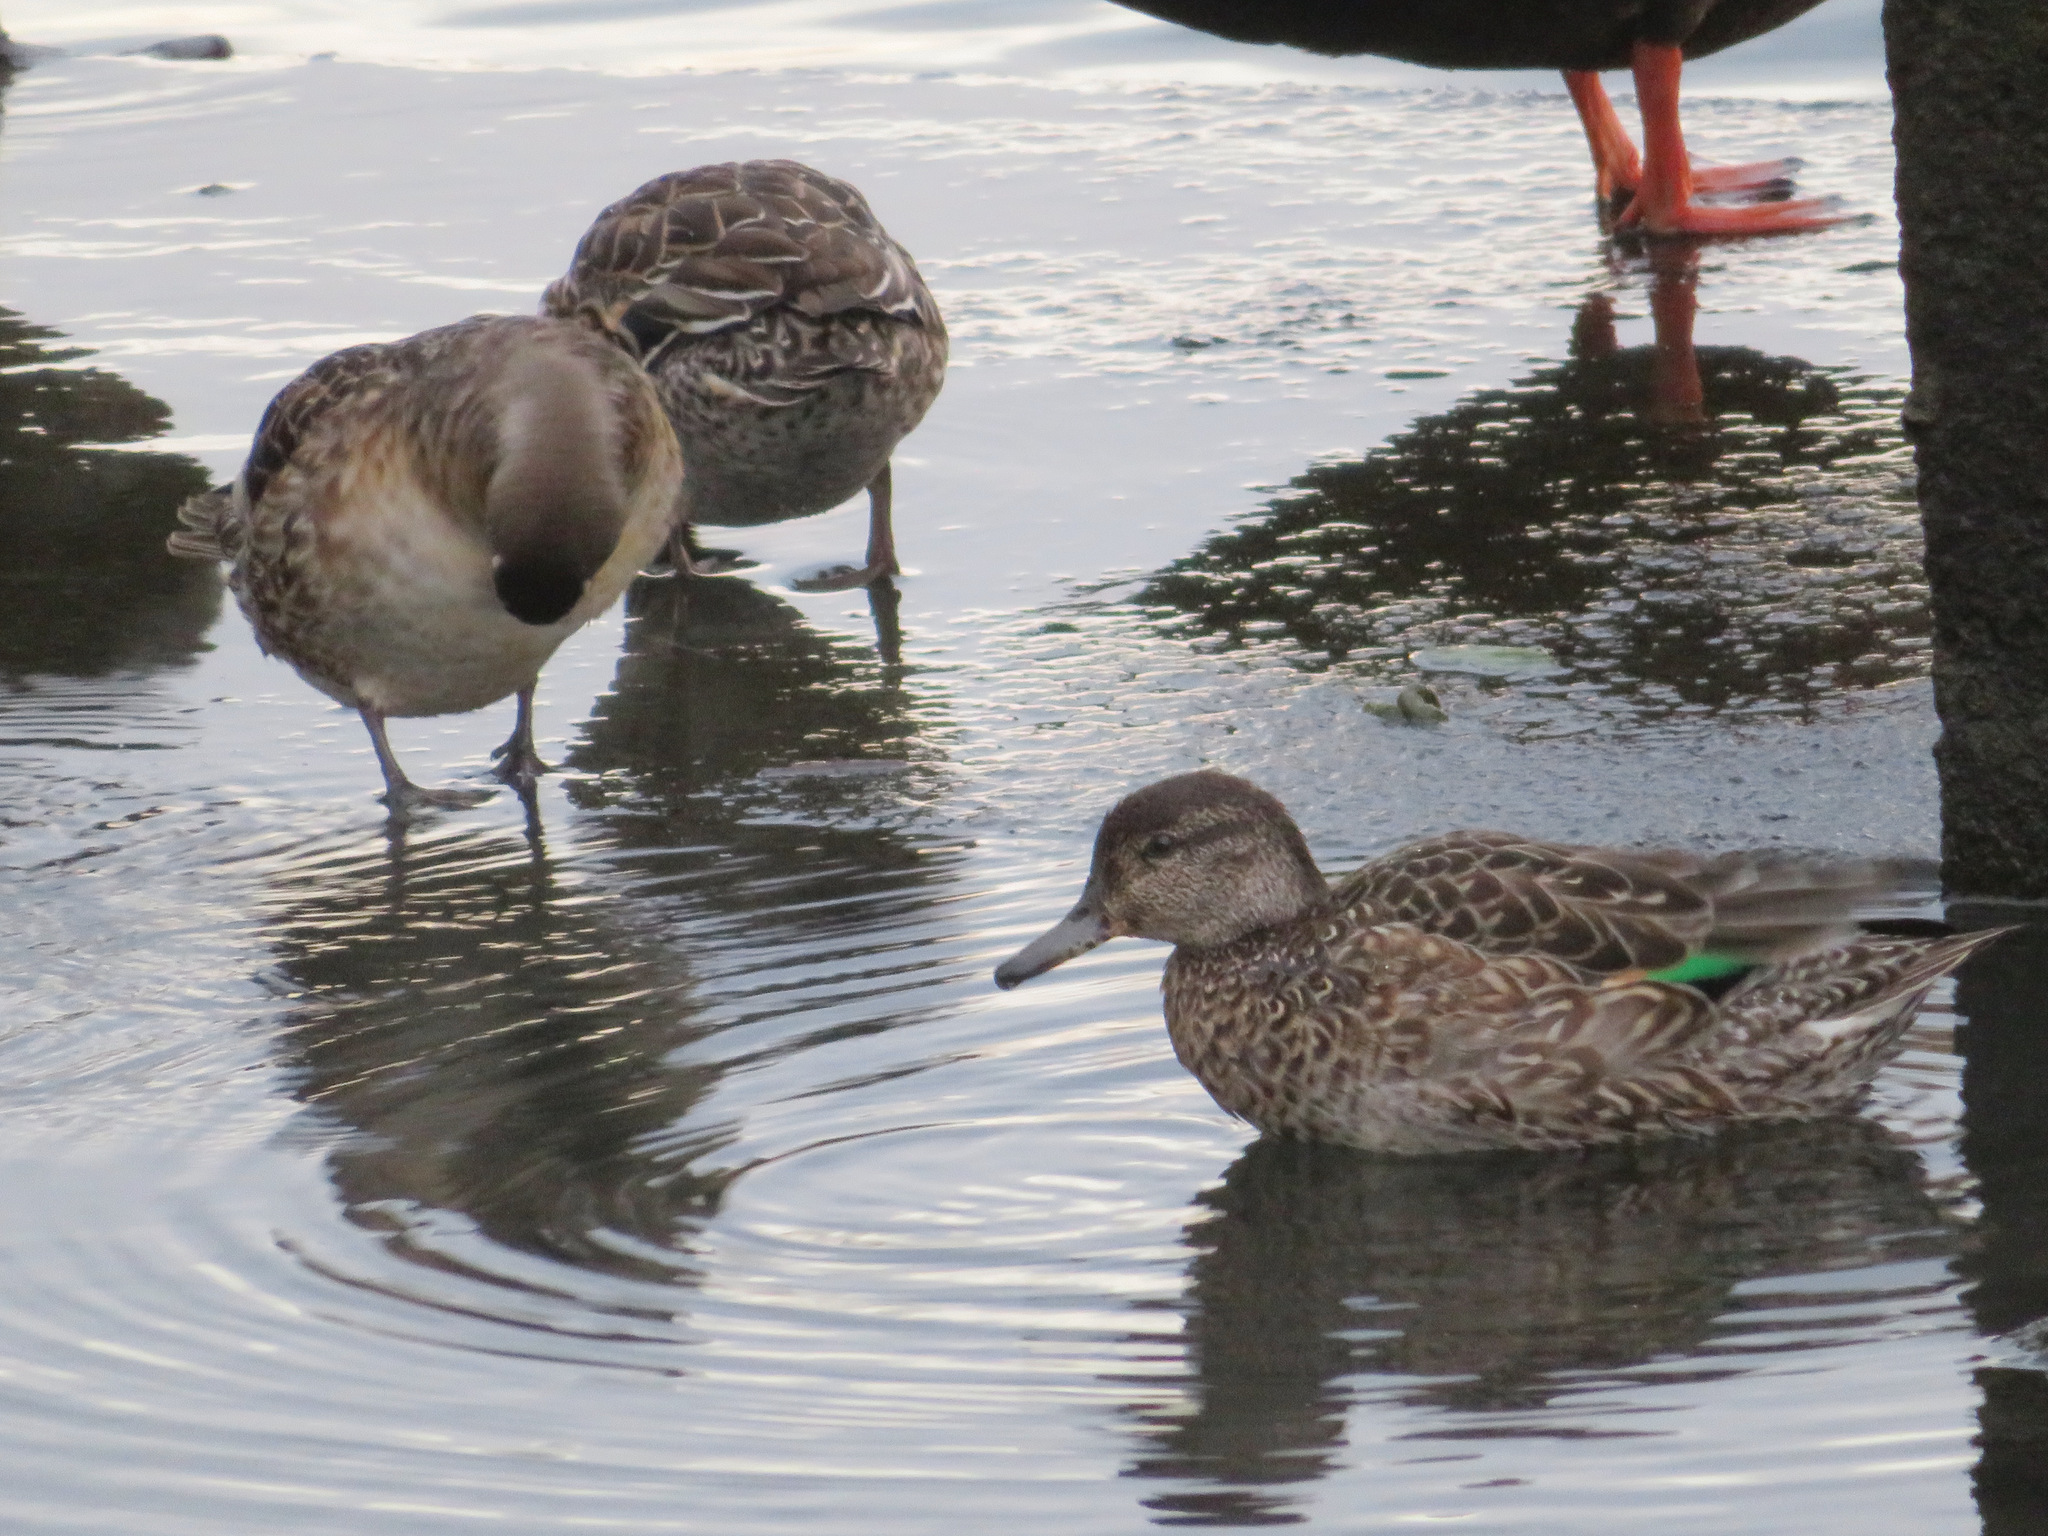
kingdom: Animalia
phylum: Chordata
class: Aves
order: Anseriformes
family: Anatidae
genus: Anas
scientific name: Anas crecca
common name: Eurasian teal
